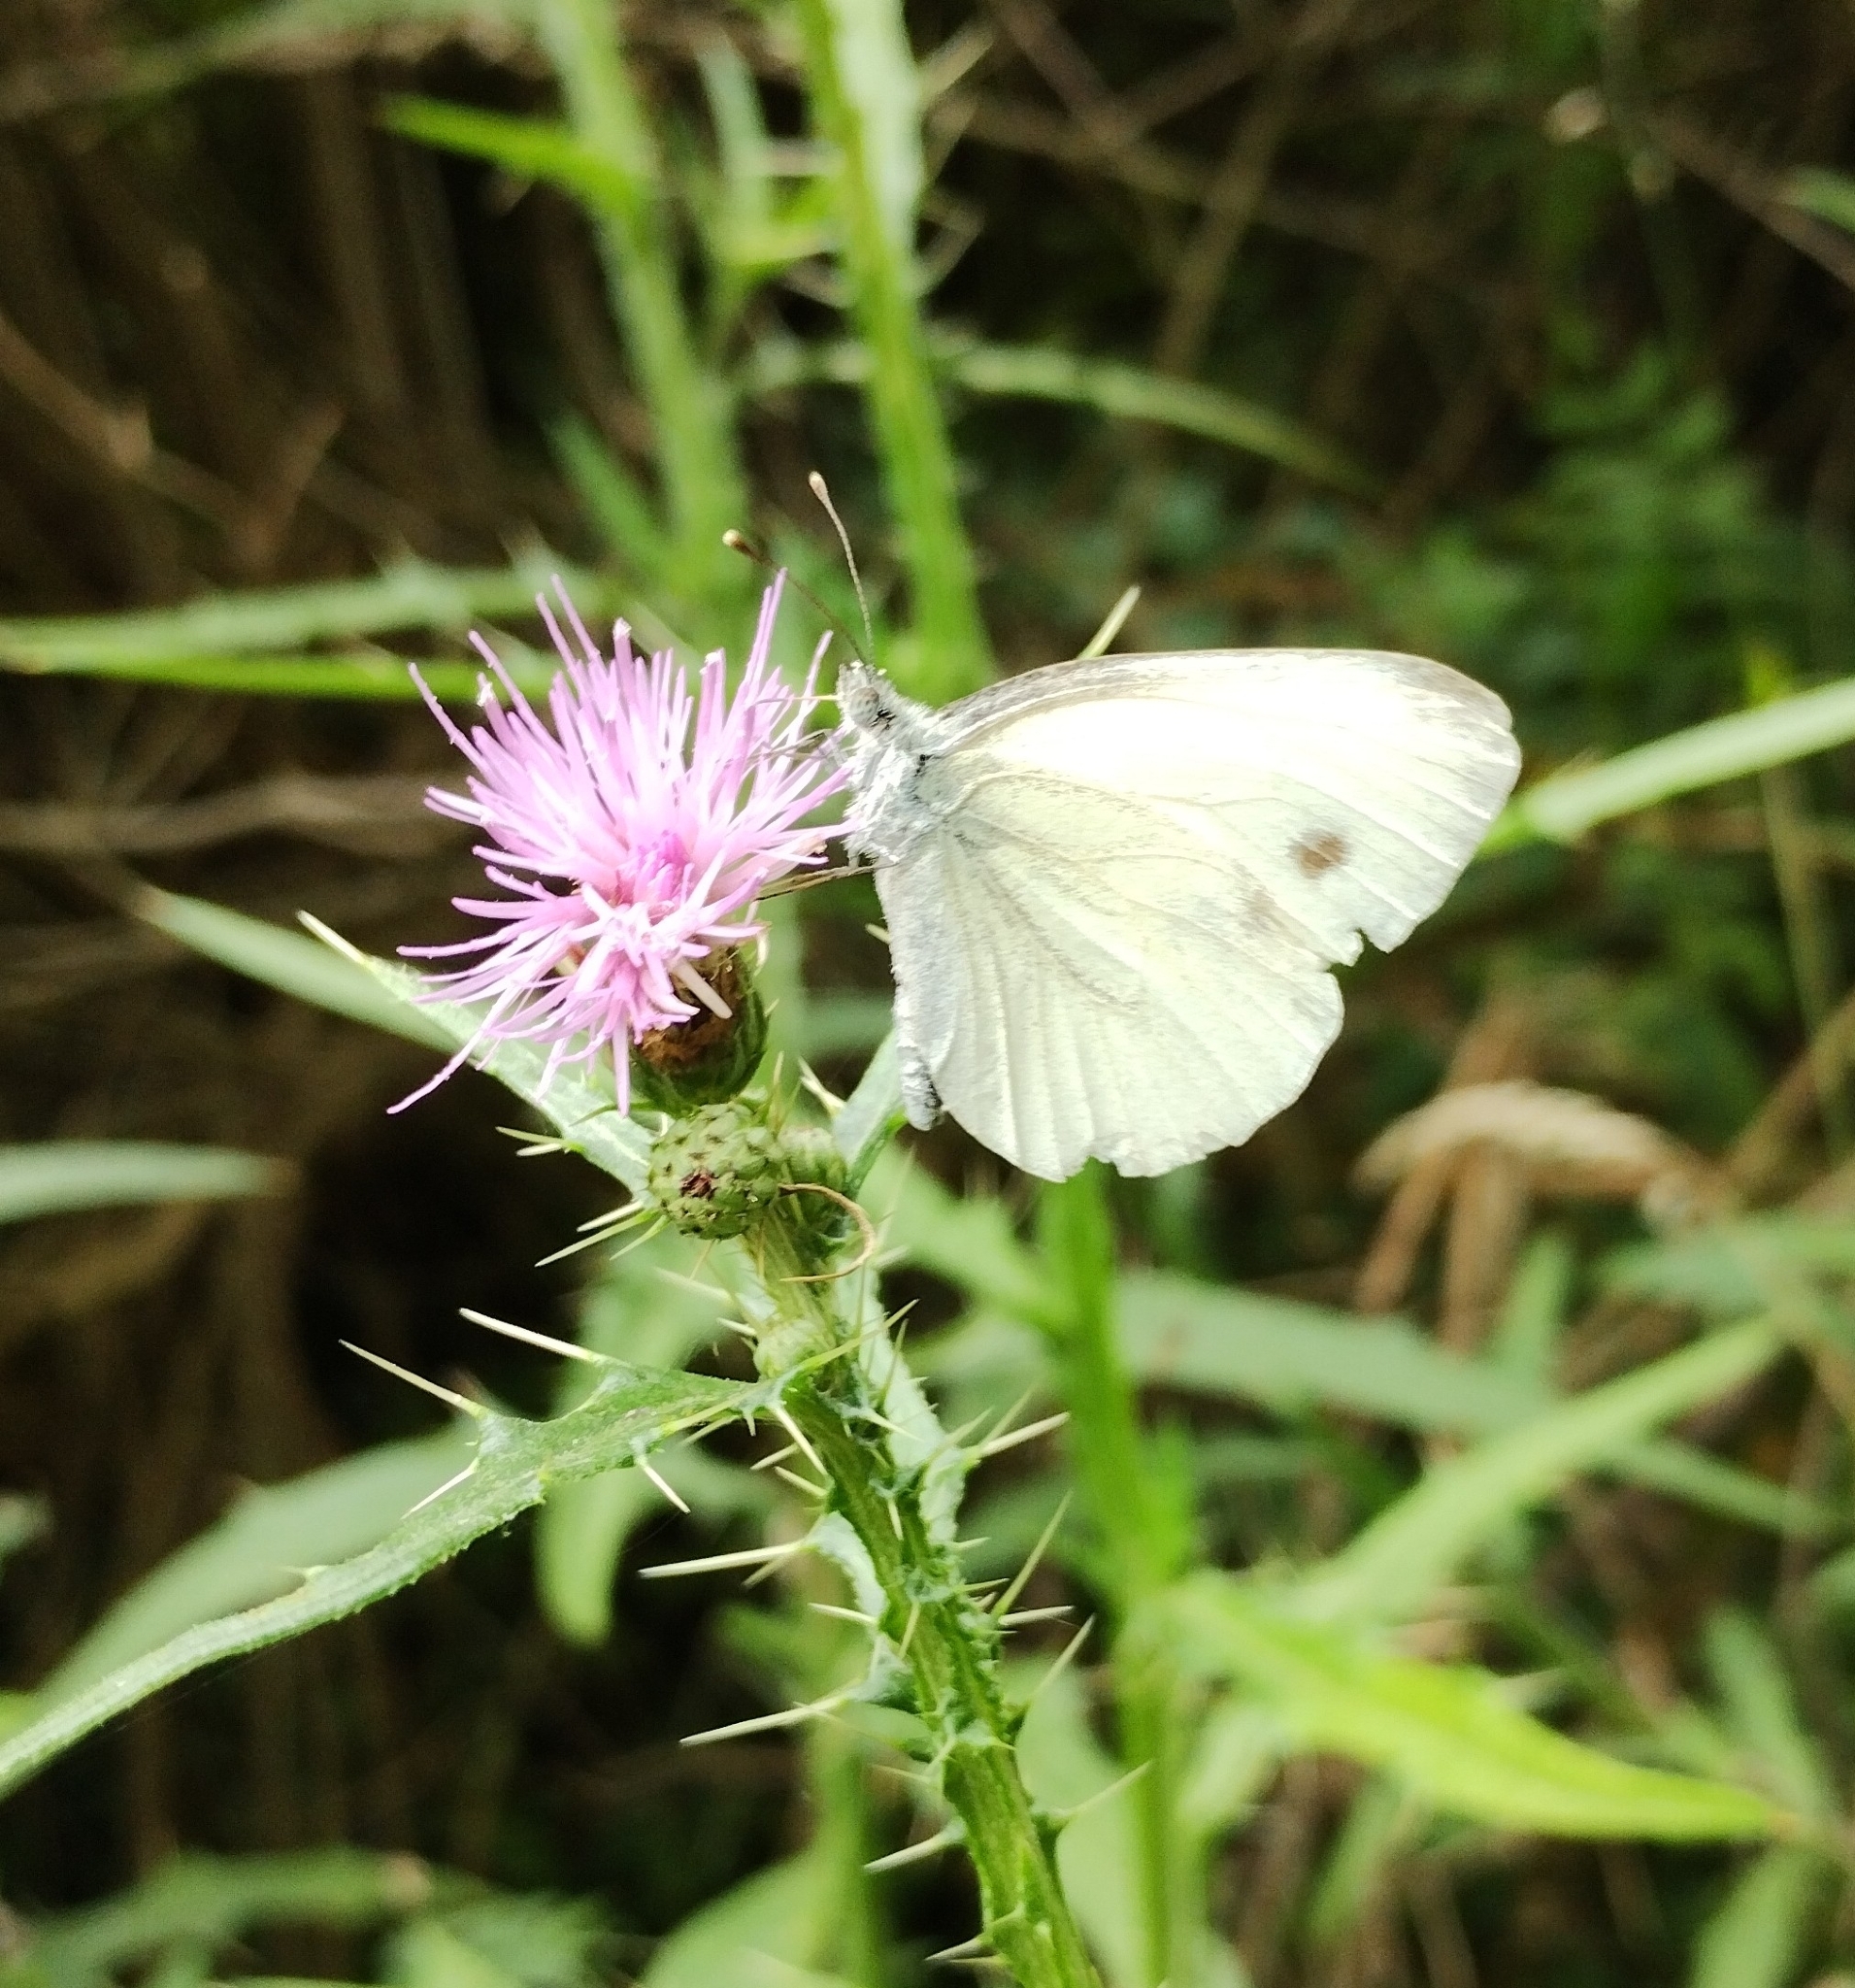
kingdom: Animalia
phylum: Arthropoda
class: Insecta
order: Lepidoptera
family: Pieridae
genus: Pieris
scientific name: Pieris napi
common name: Green-veined white
